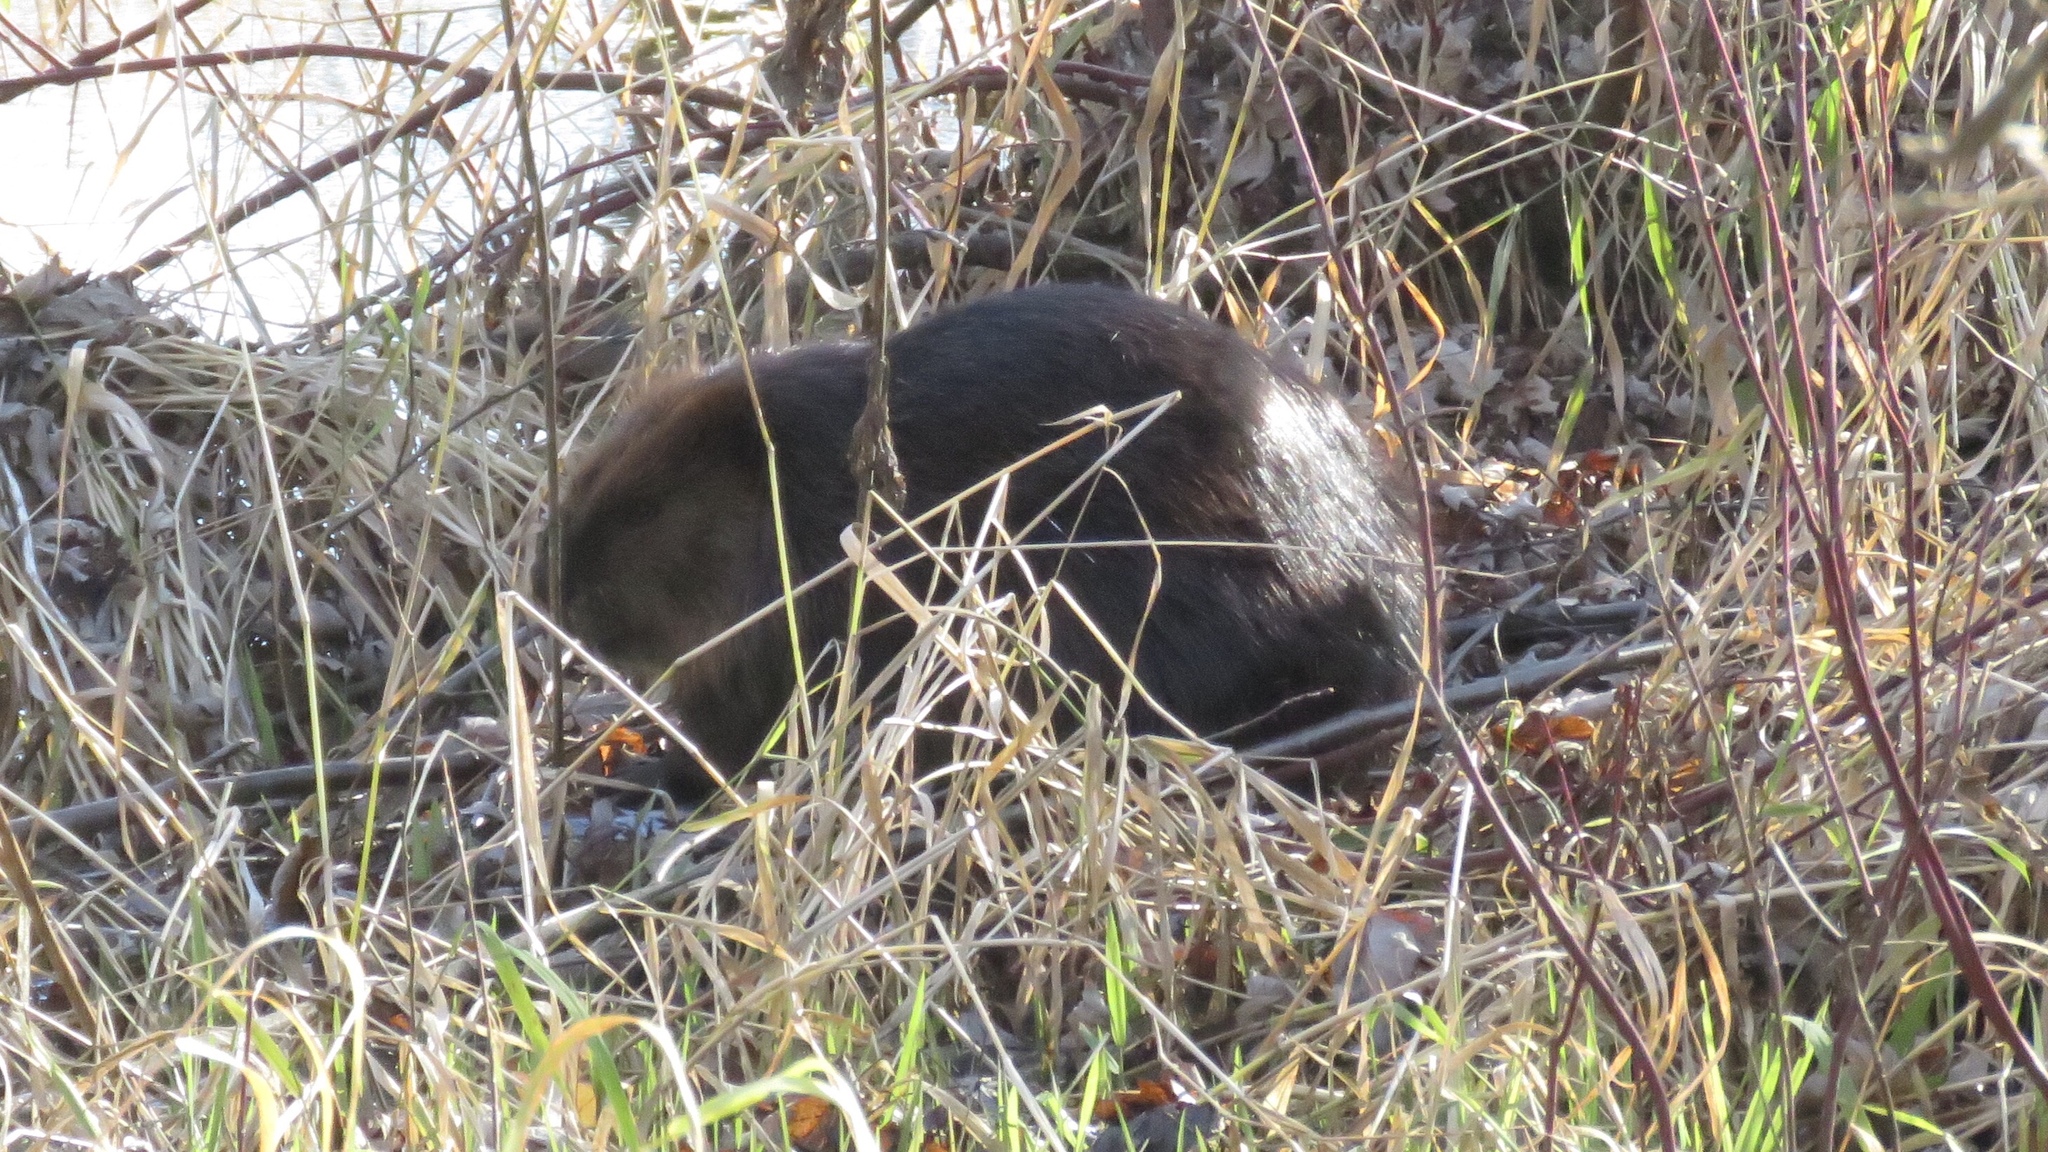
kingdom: Animalia
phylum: Chordata
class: Mammalia
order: Rodentia
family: Castoridae
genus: Castor
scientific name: Castor canadensis
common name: American beaver
